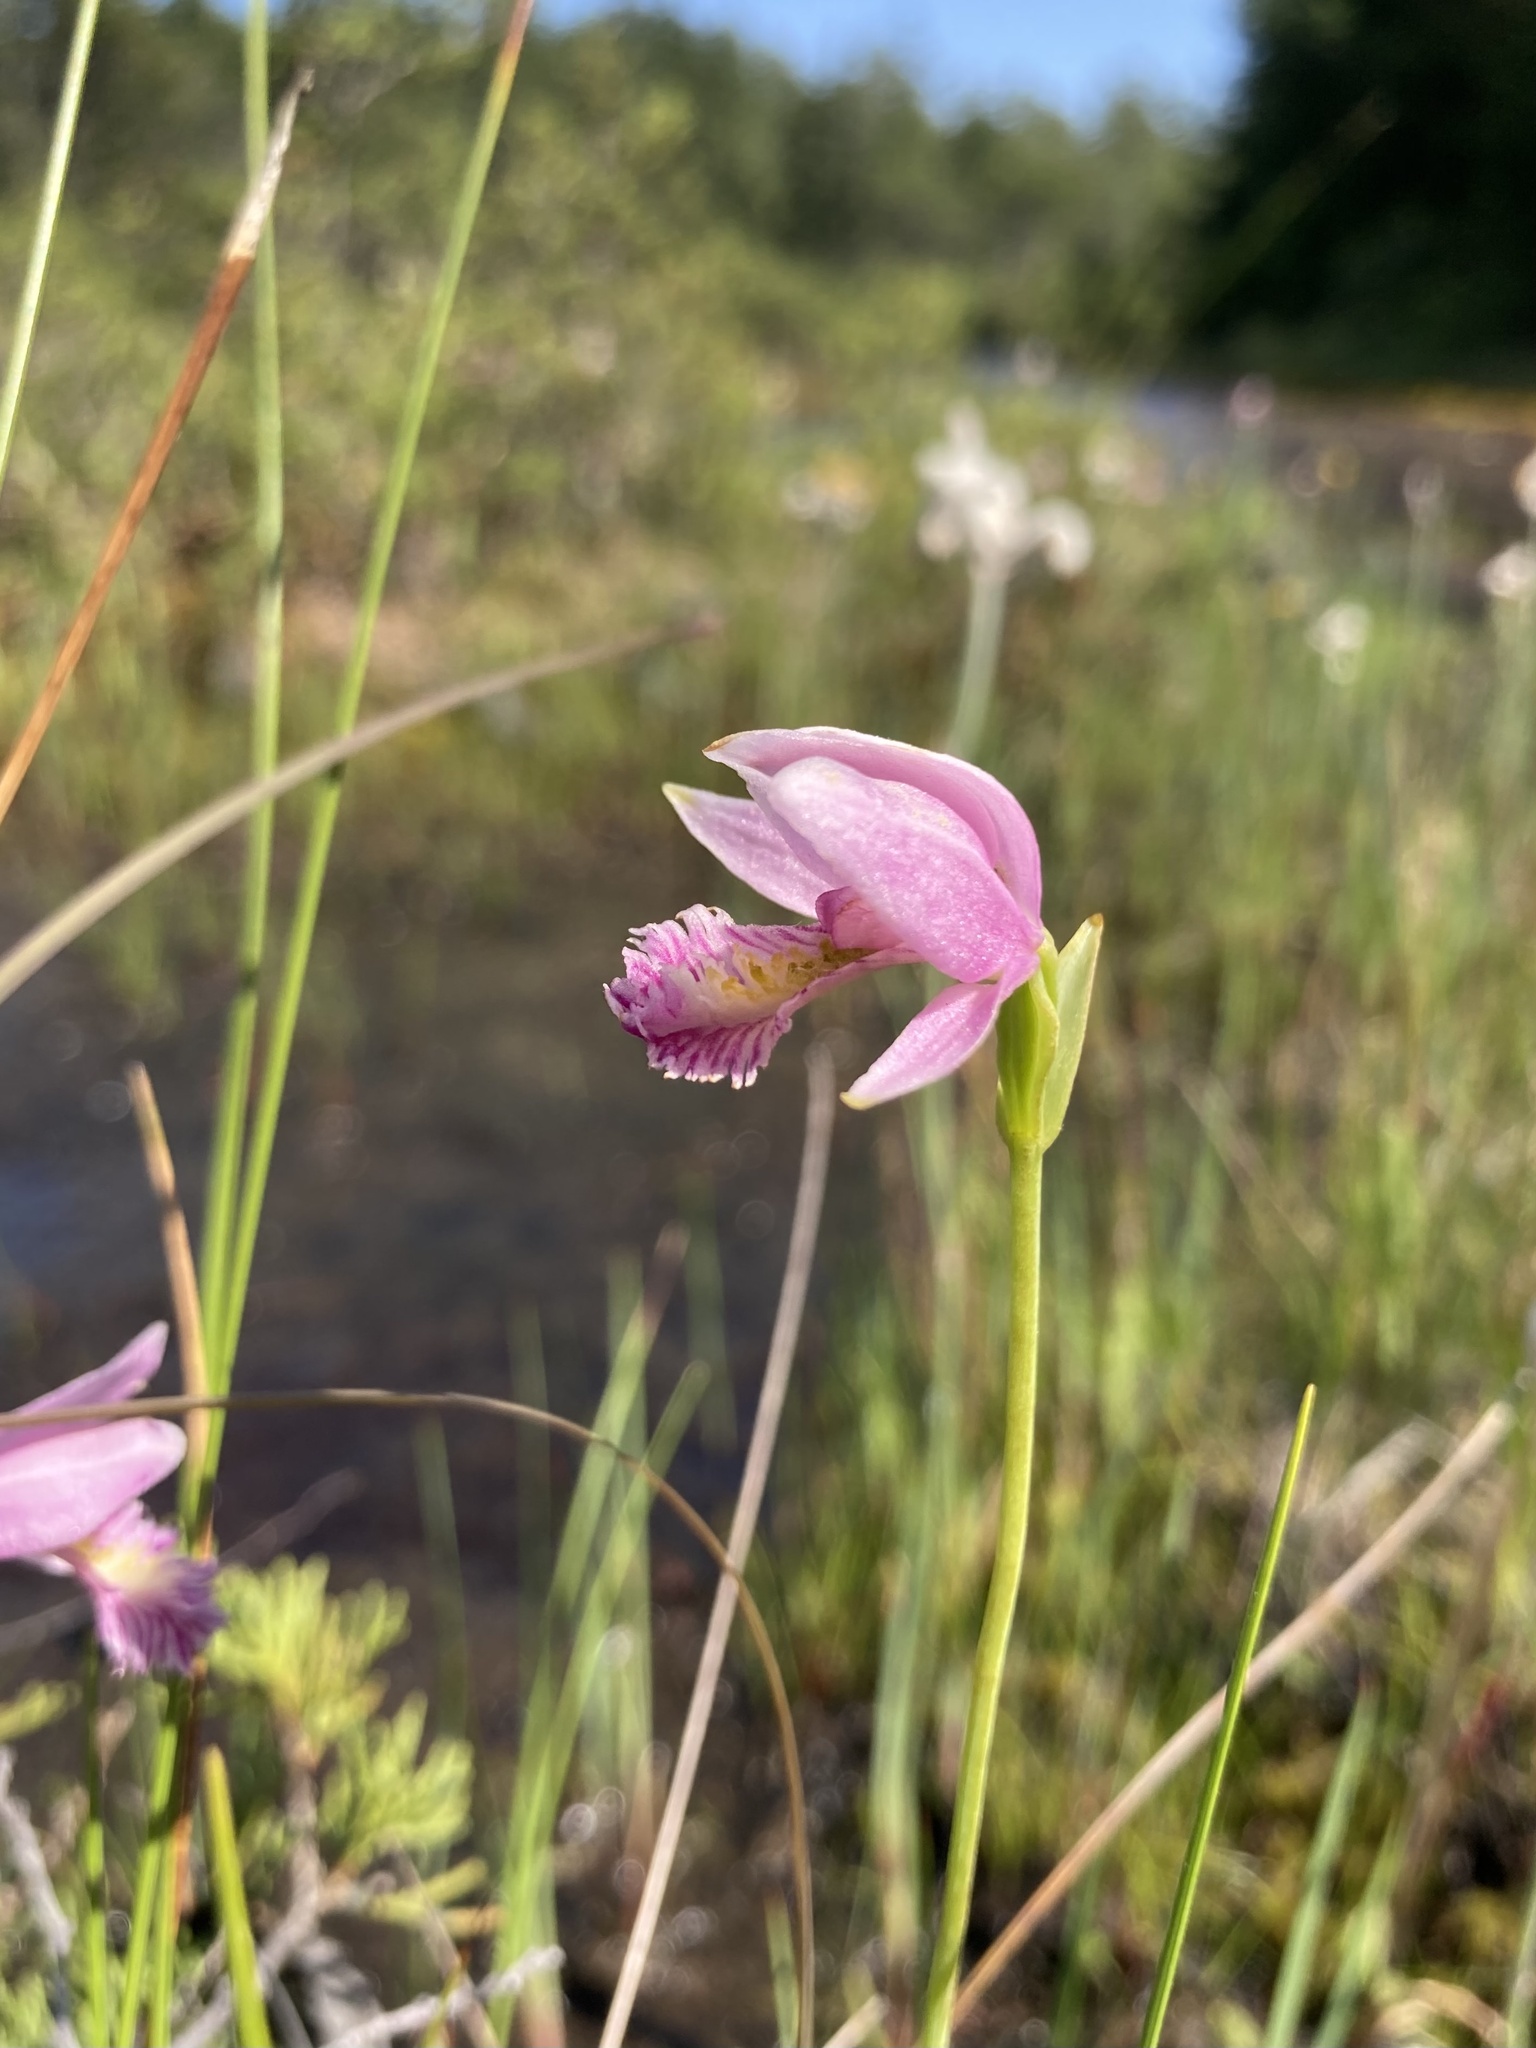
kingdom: Plantae
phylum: Tracheophyta
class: Liliopsida
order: Asparagales
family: Orchidaceae
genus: Pogonia
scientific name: Pogonia ophioglossoides
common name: Rose pogonia
